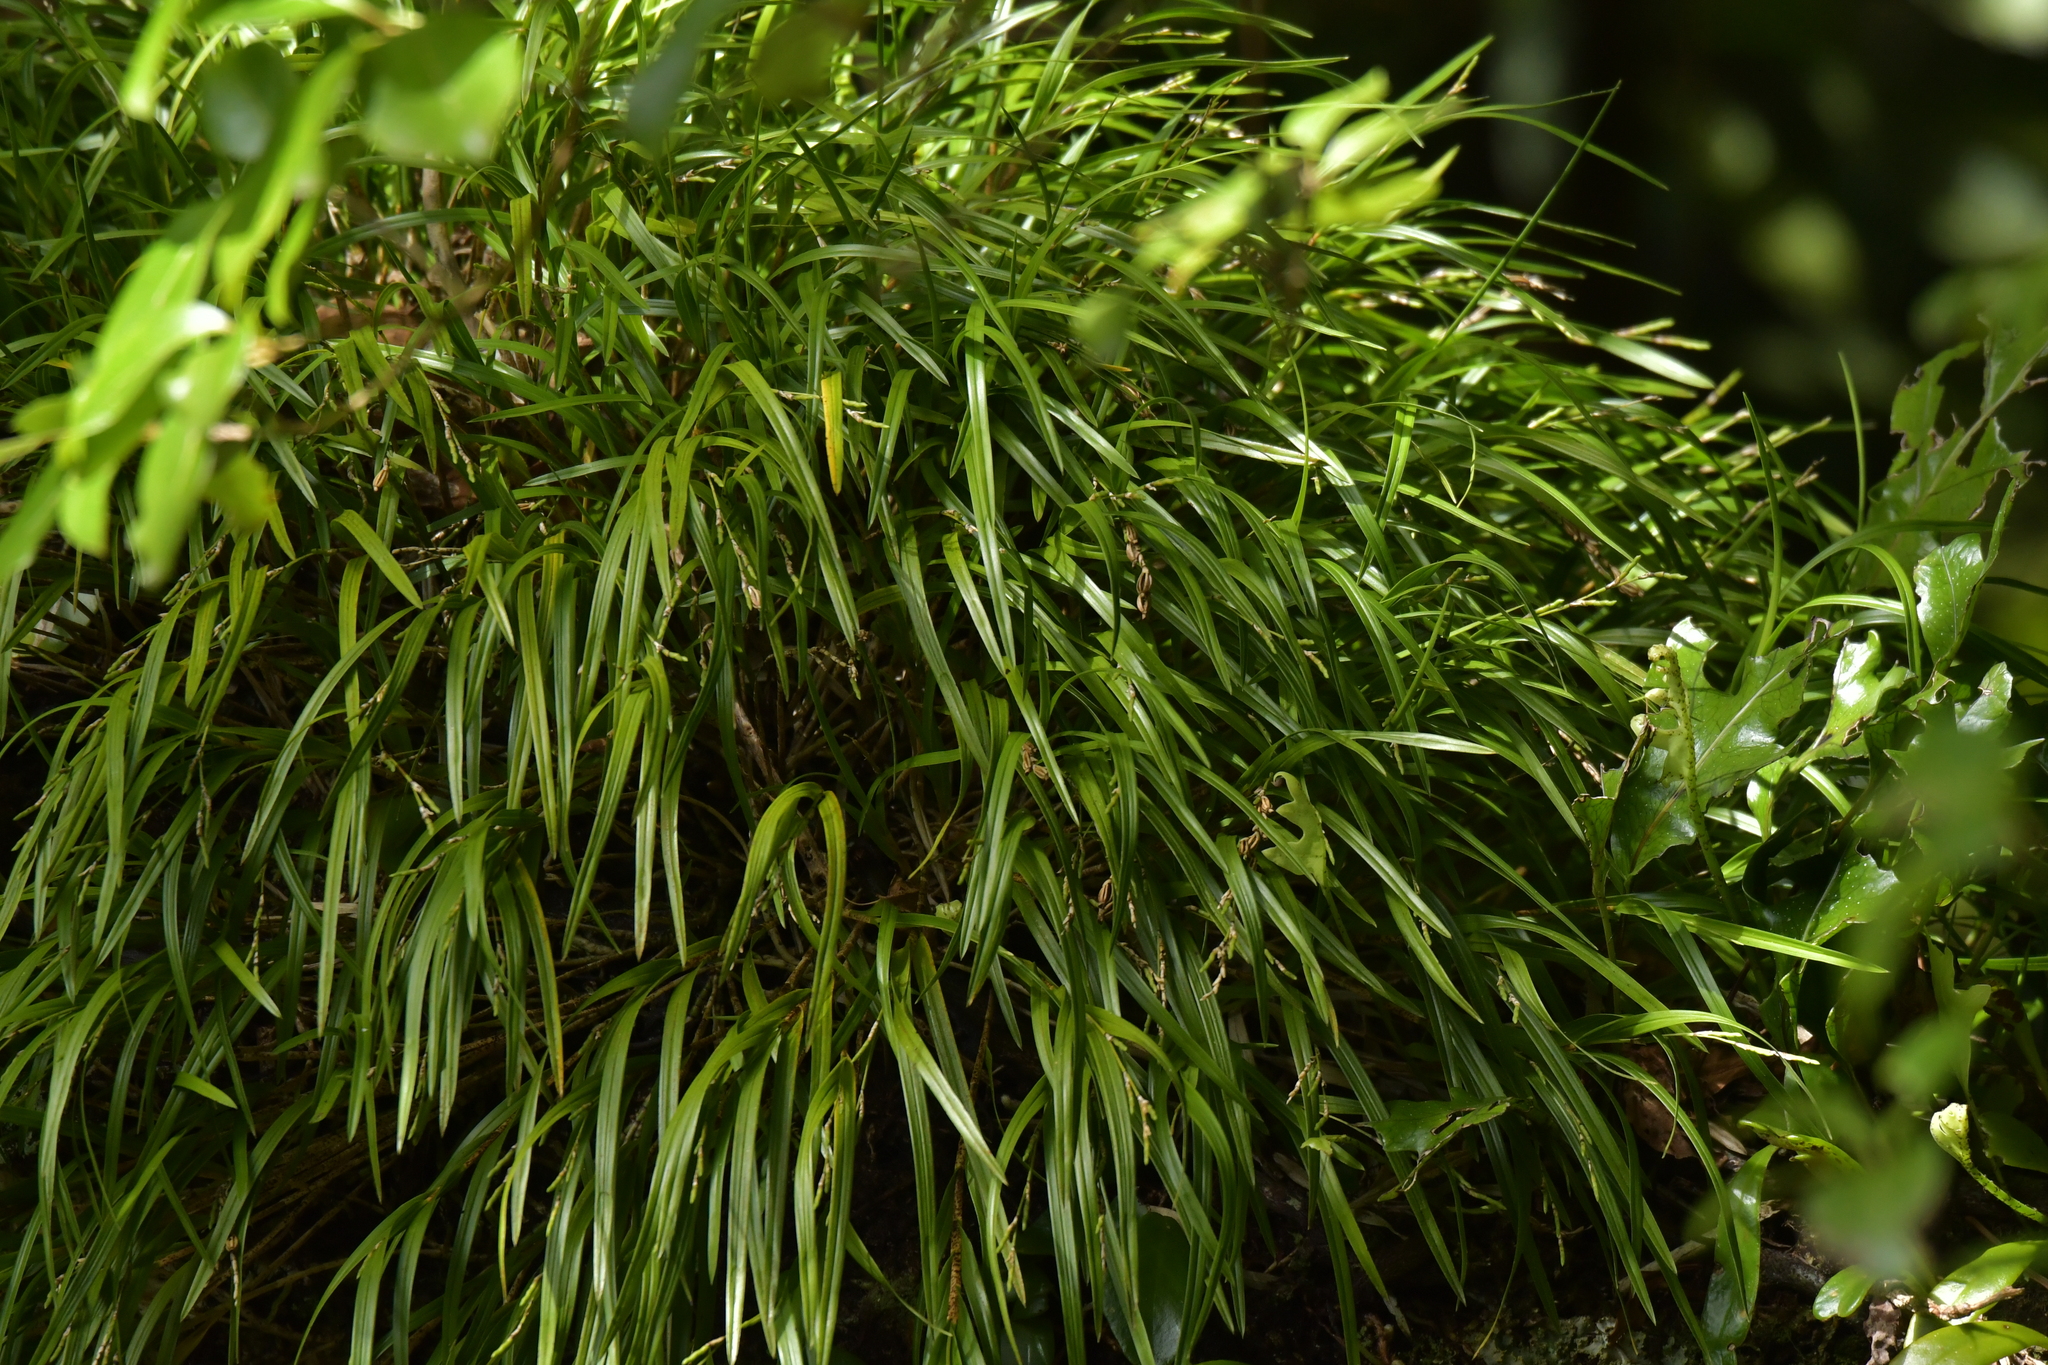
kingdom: Plantae
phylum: Tracheophyta
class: Liliopsida
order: Asparagales
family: Orchidaceae
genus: Earina
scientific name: Earina mucronata
